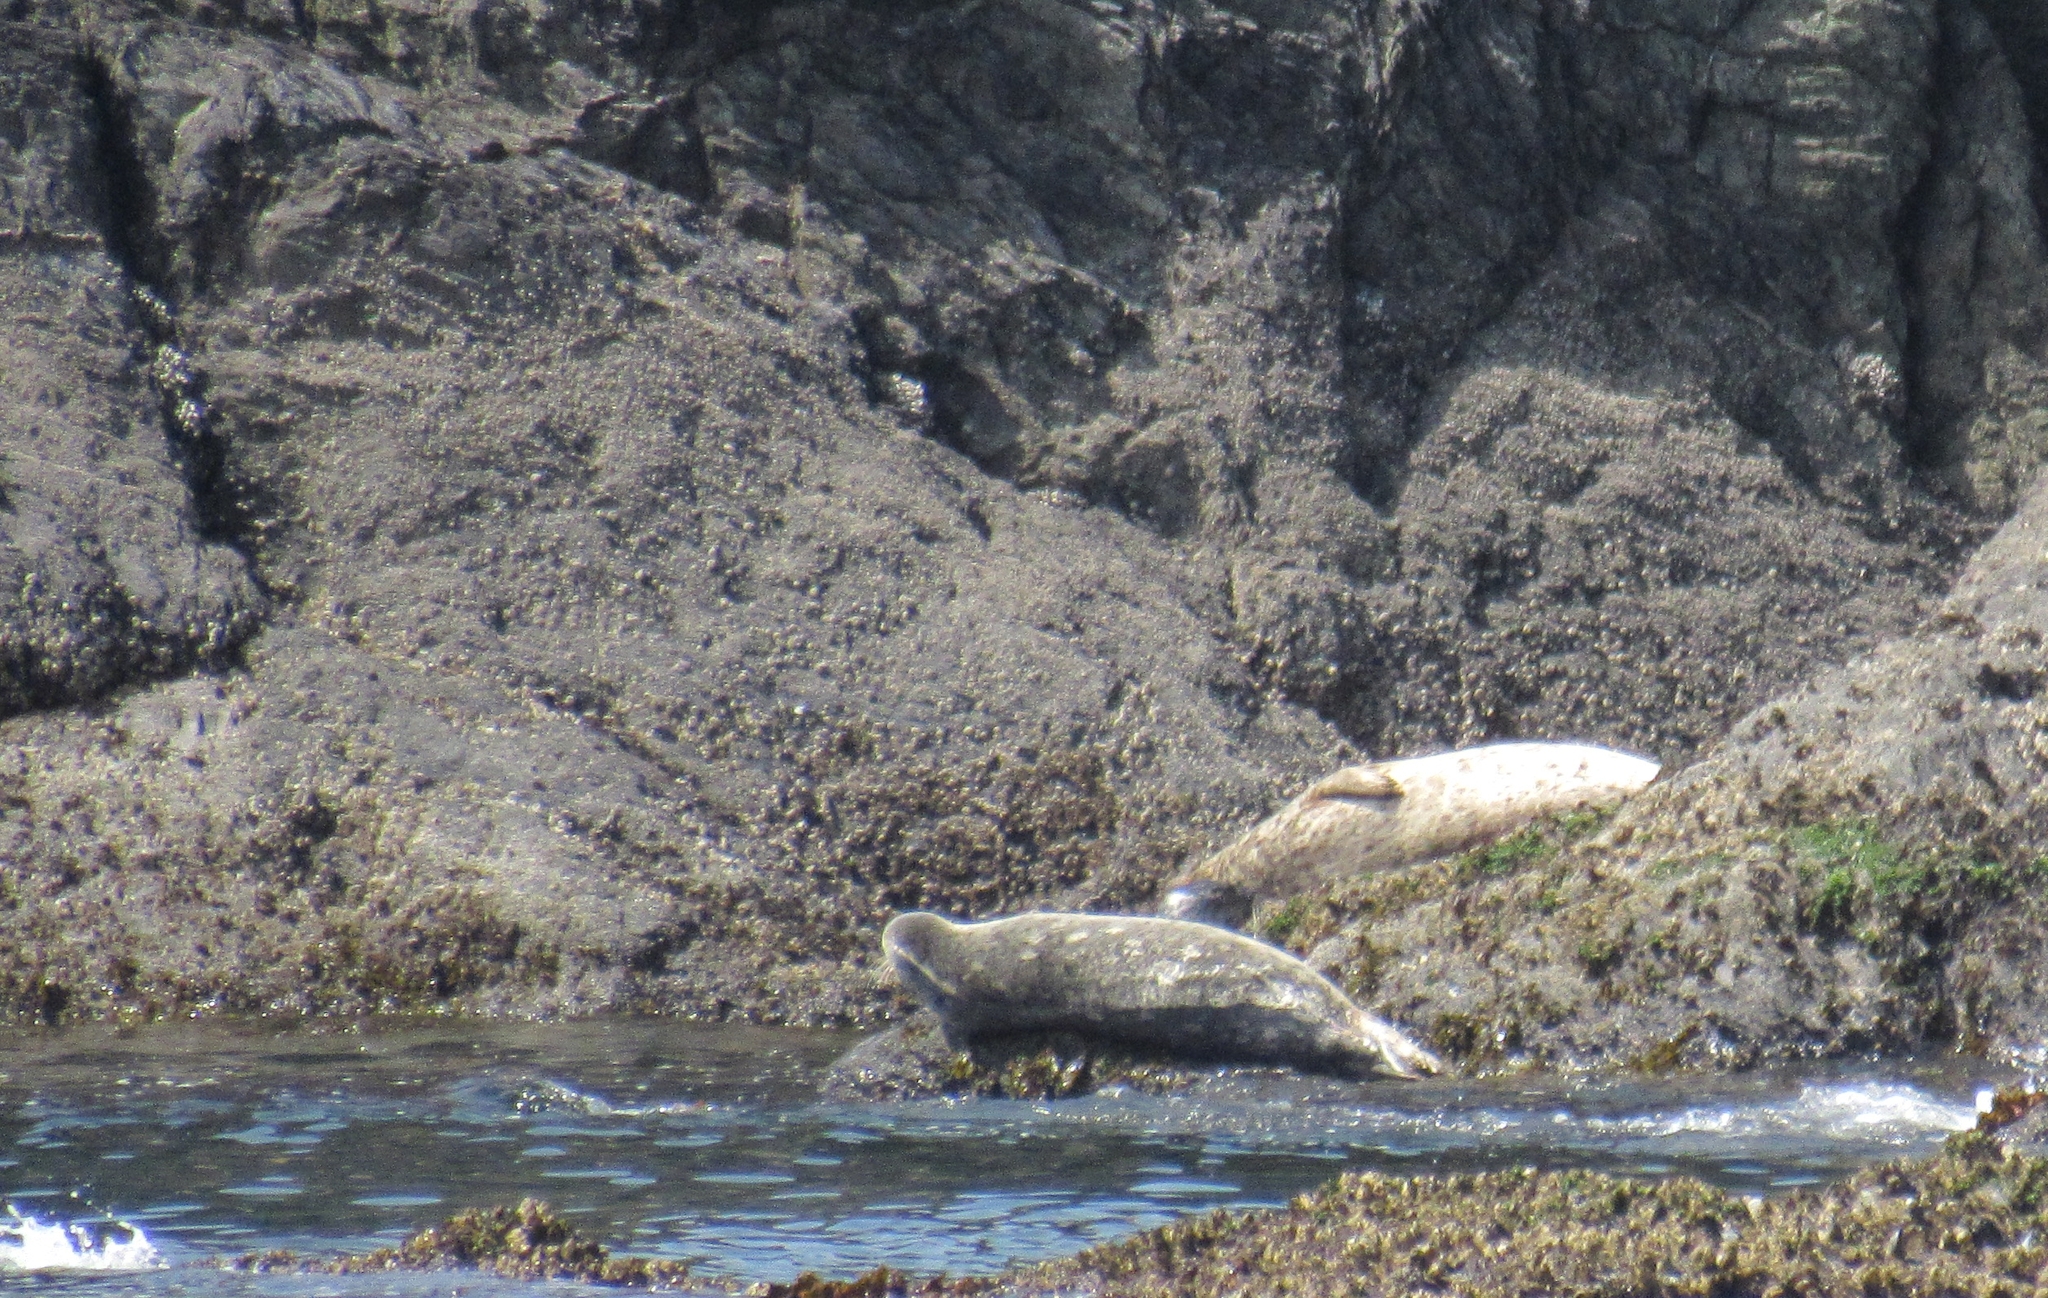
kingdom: Animalia
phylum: Chordata
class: Mammalia
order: Carnivora
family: Phocidae
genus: Phoca
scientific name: Phoca vitulina
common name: Harbor seal
